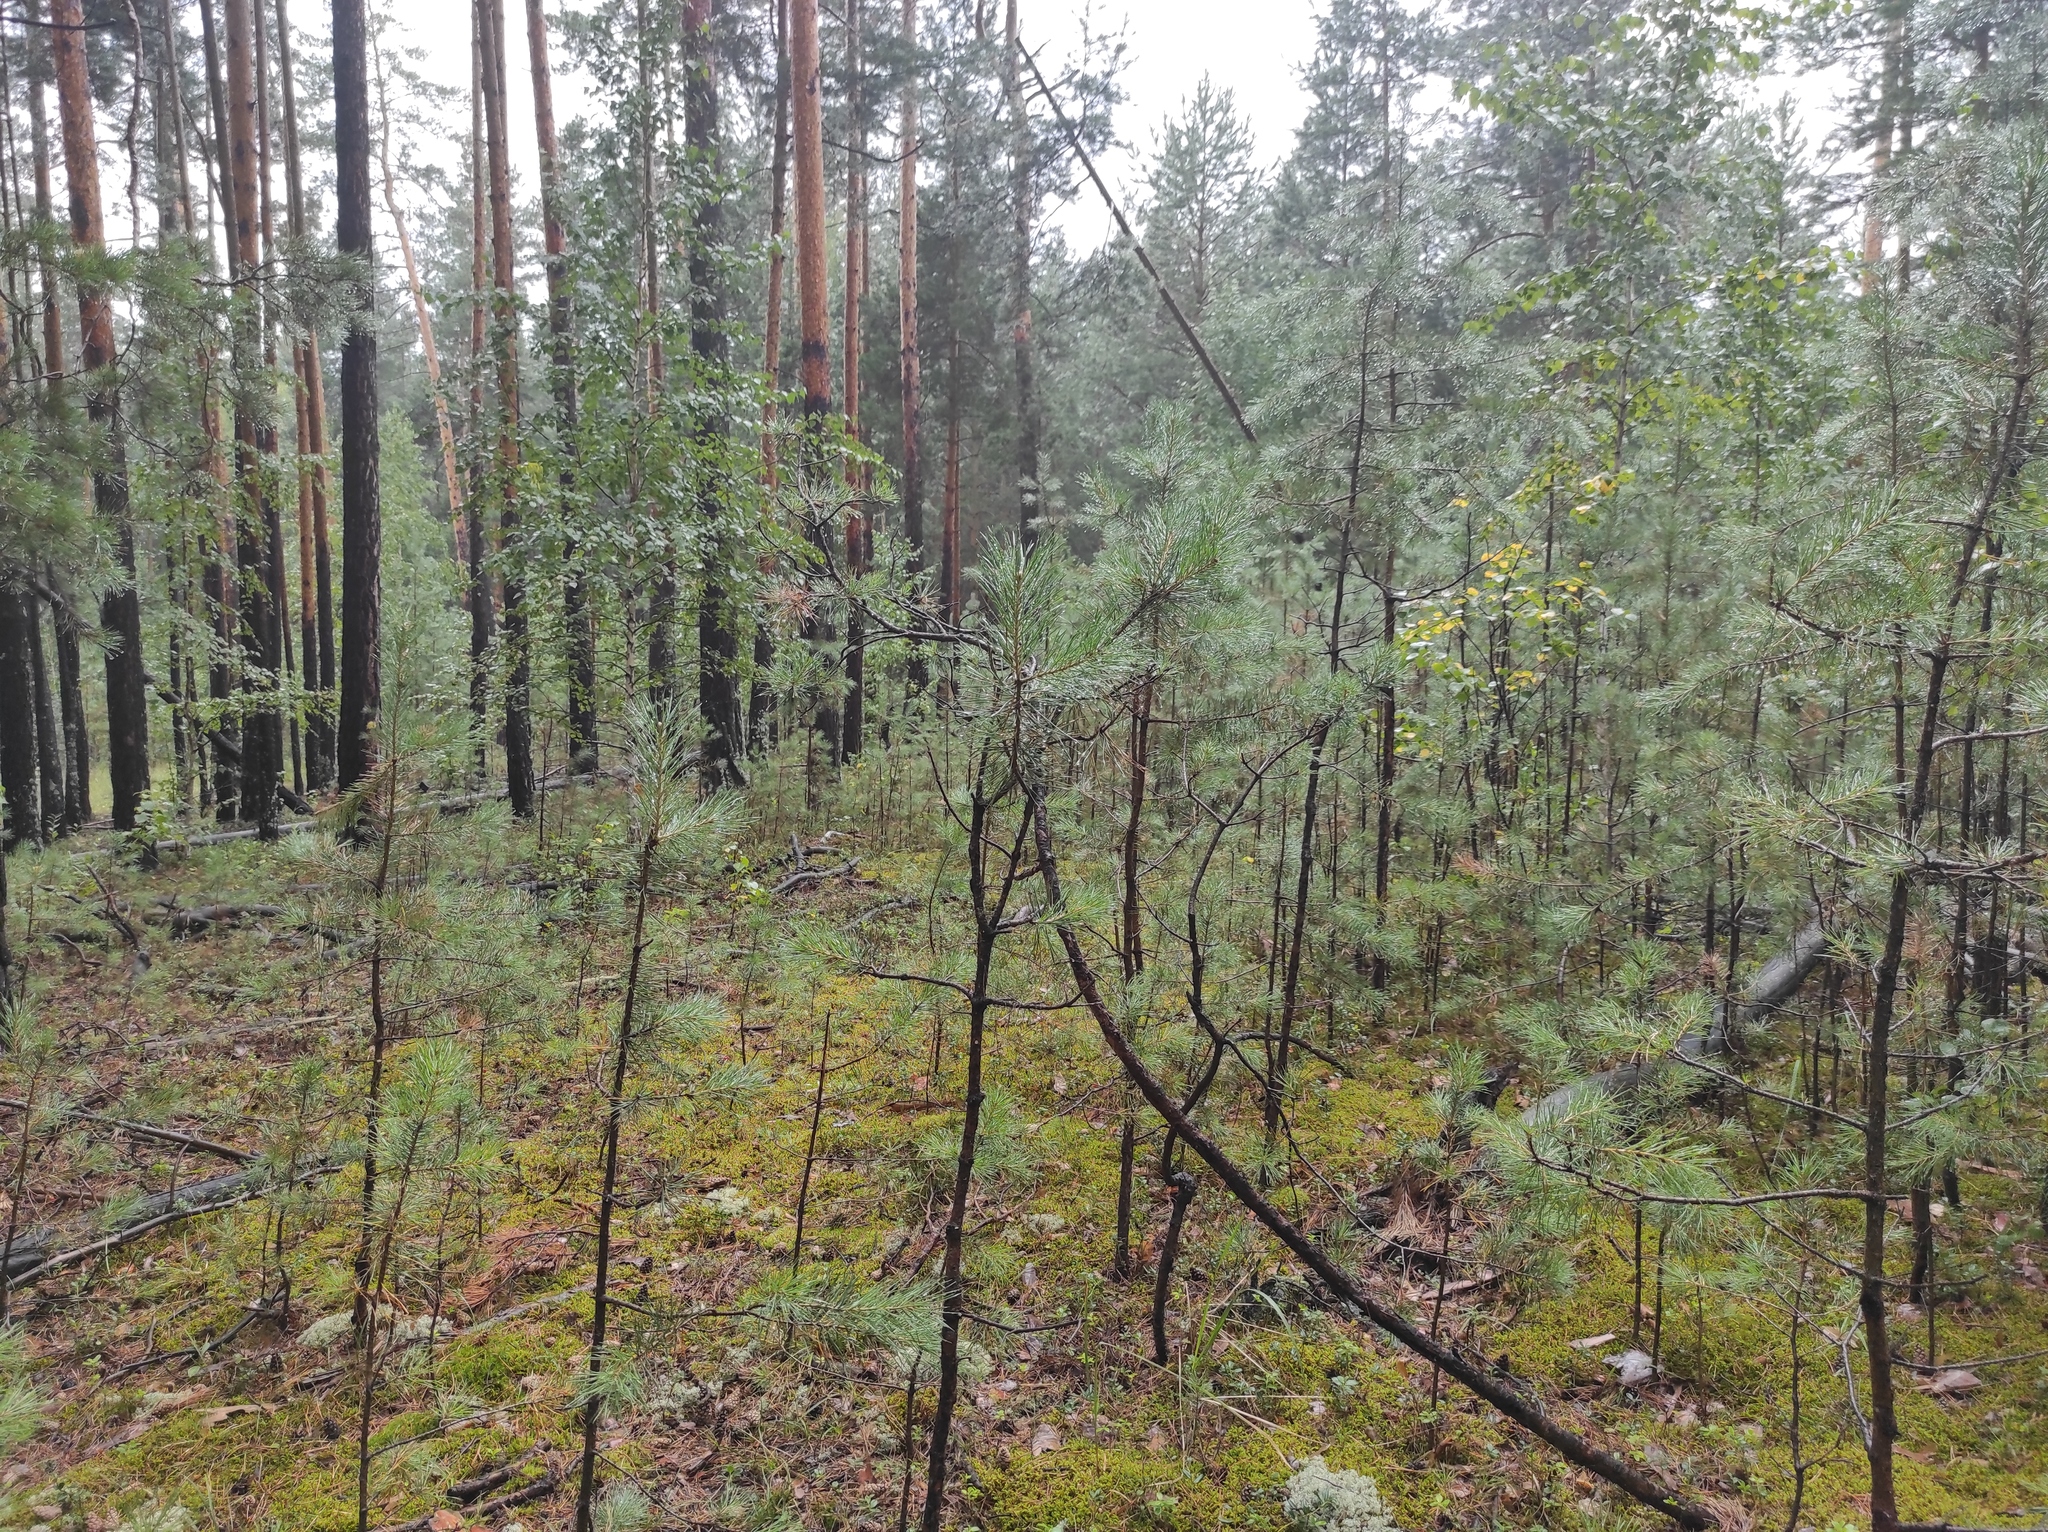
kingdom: Plantae
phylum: Tracheophyta
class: Pinopsida
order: Pinales
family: Pinaceae
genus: Pinus
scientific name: Pinus sylvestris
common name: Scots pine
